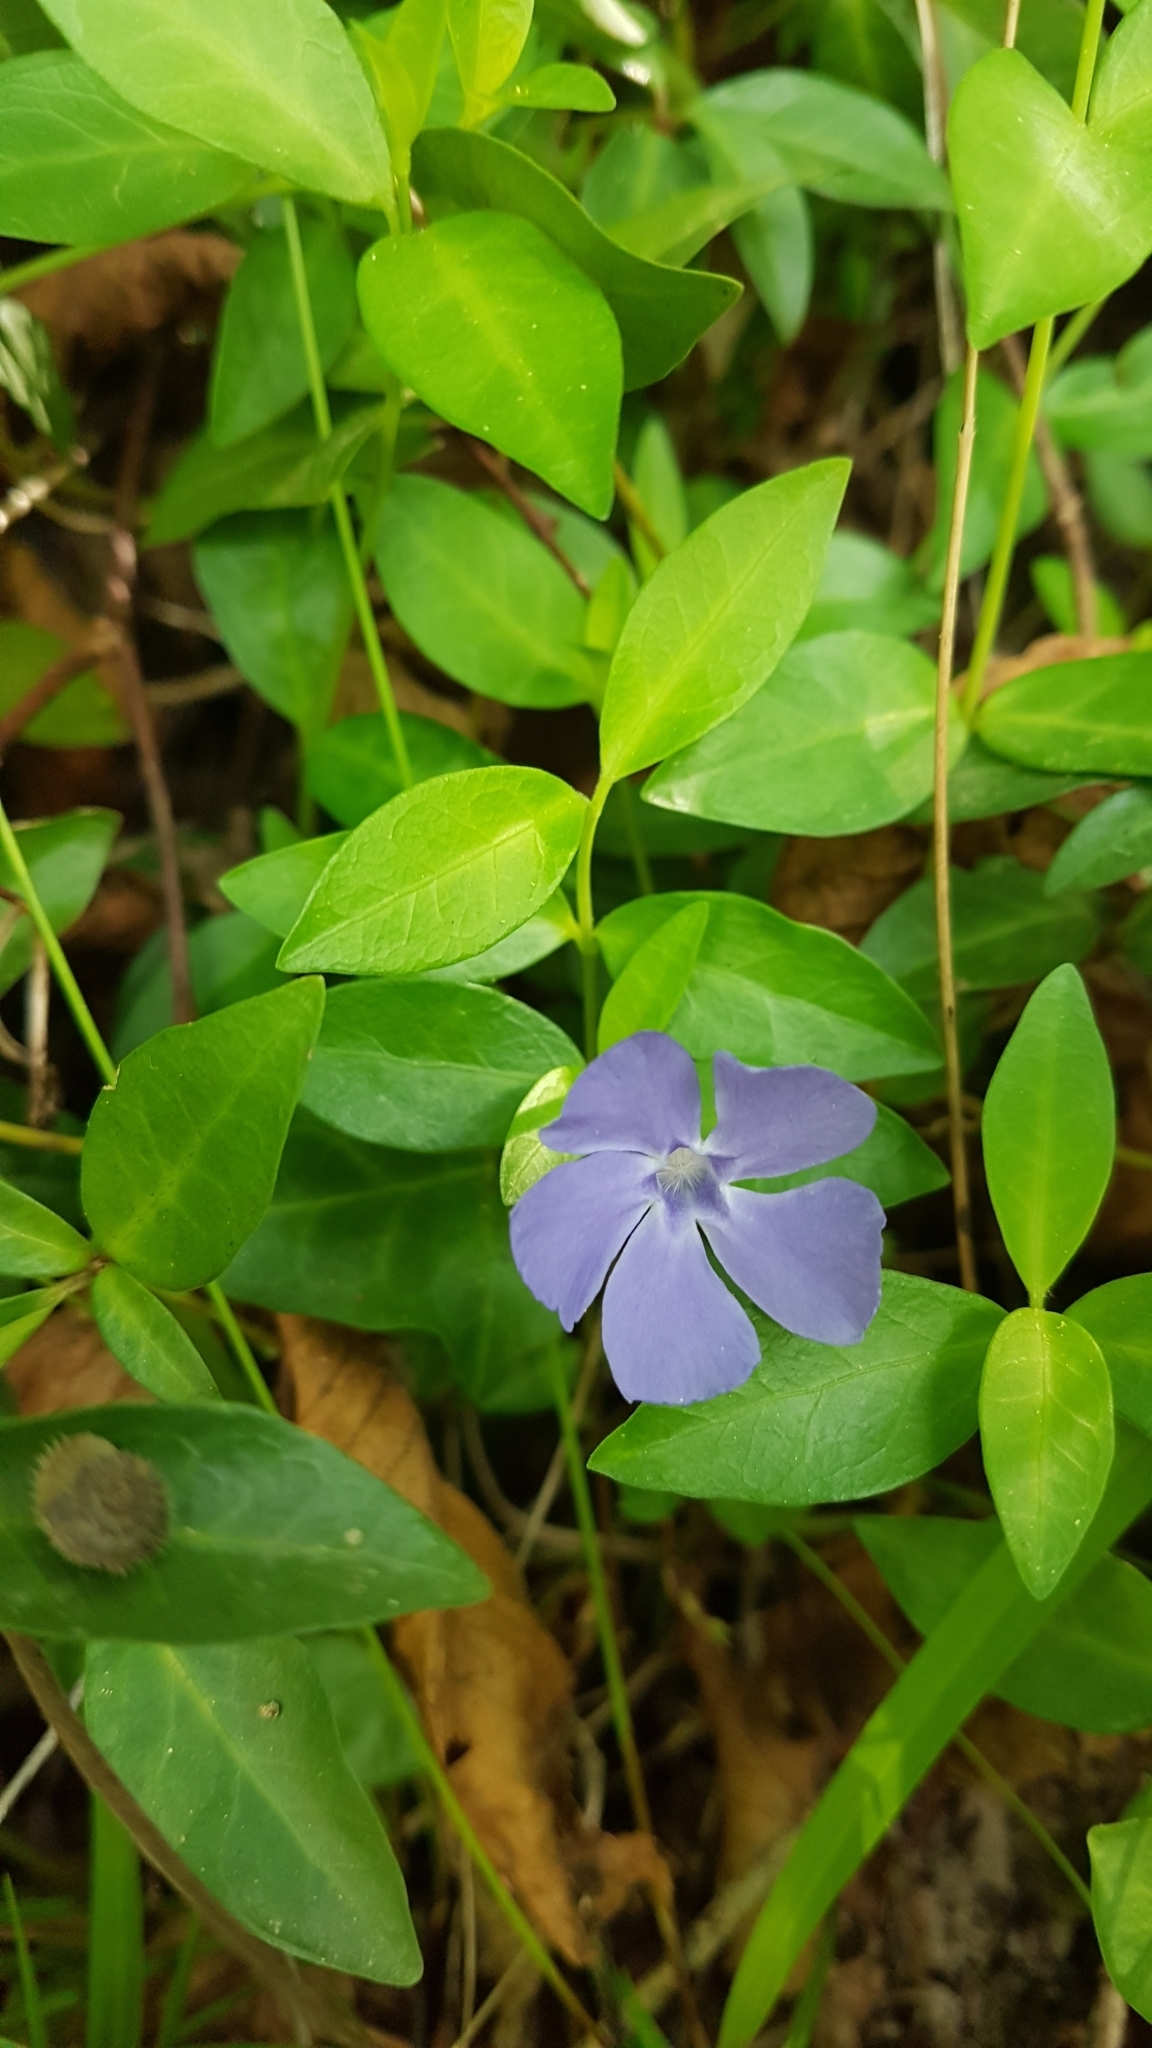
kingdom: Plantae
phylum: Tracheophyta
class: Magnoliopsida
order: Gentianales
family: Apocynaceae
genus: Vinca
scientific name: Vinca minor
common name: Lesser periwinkle
